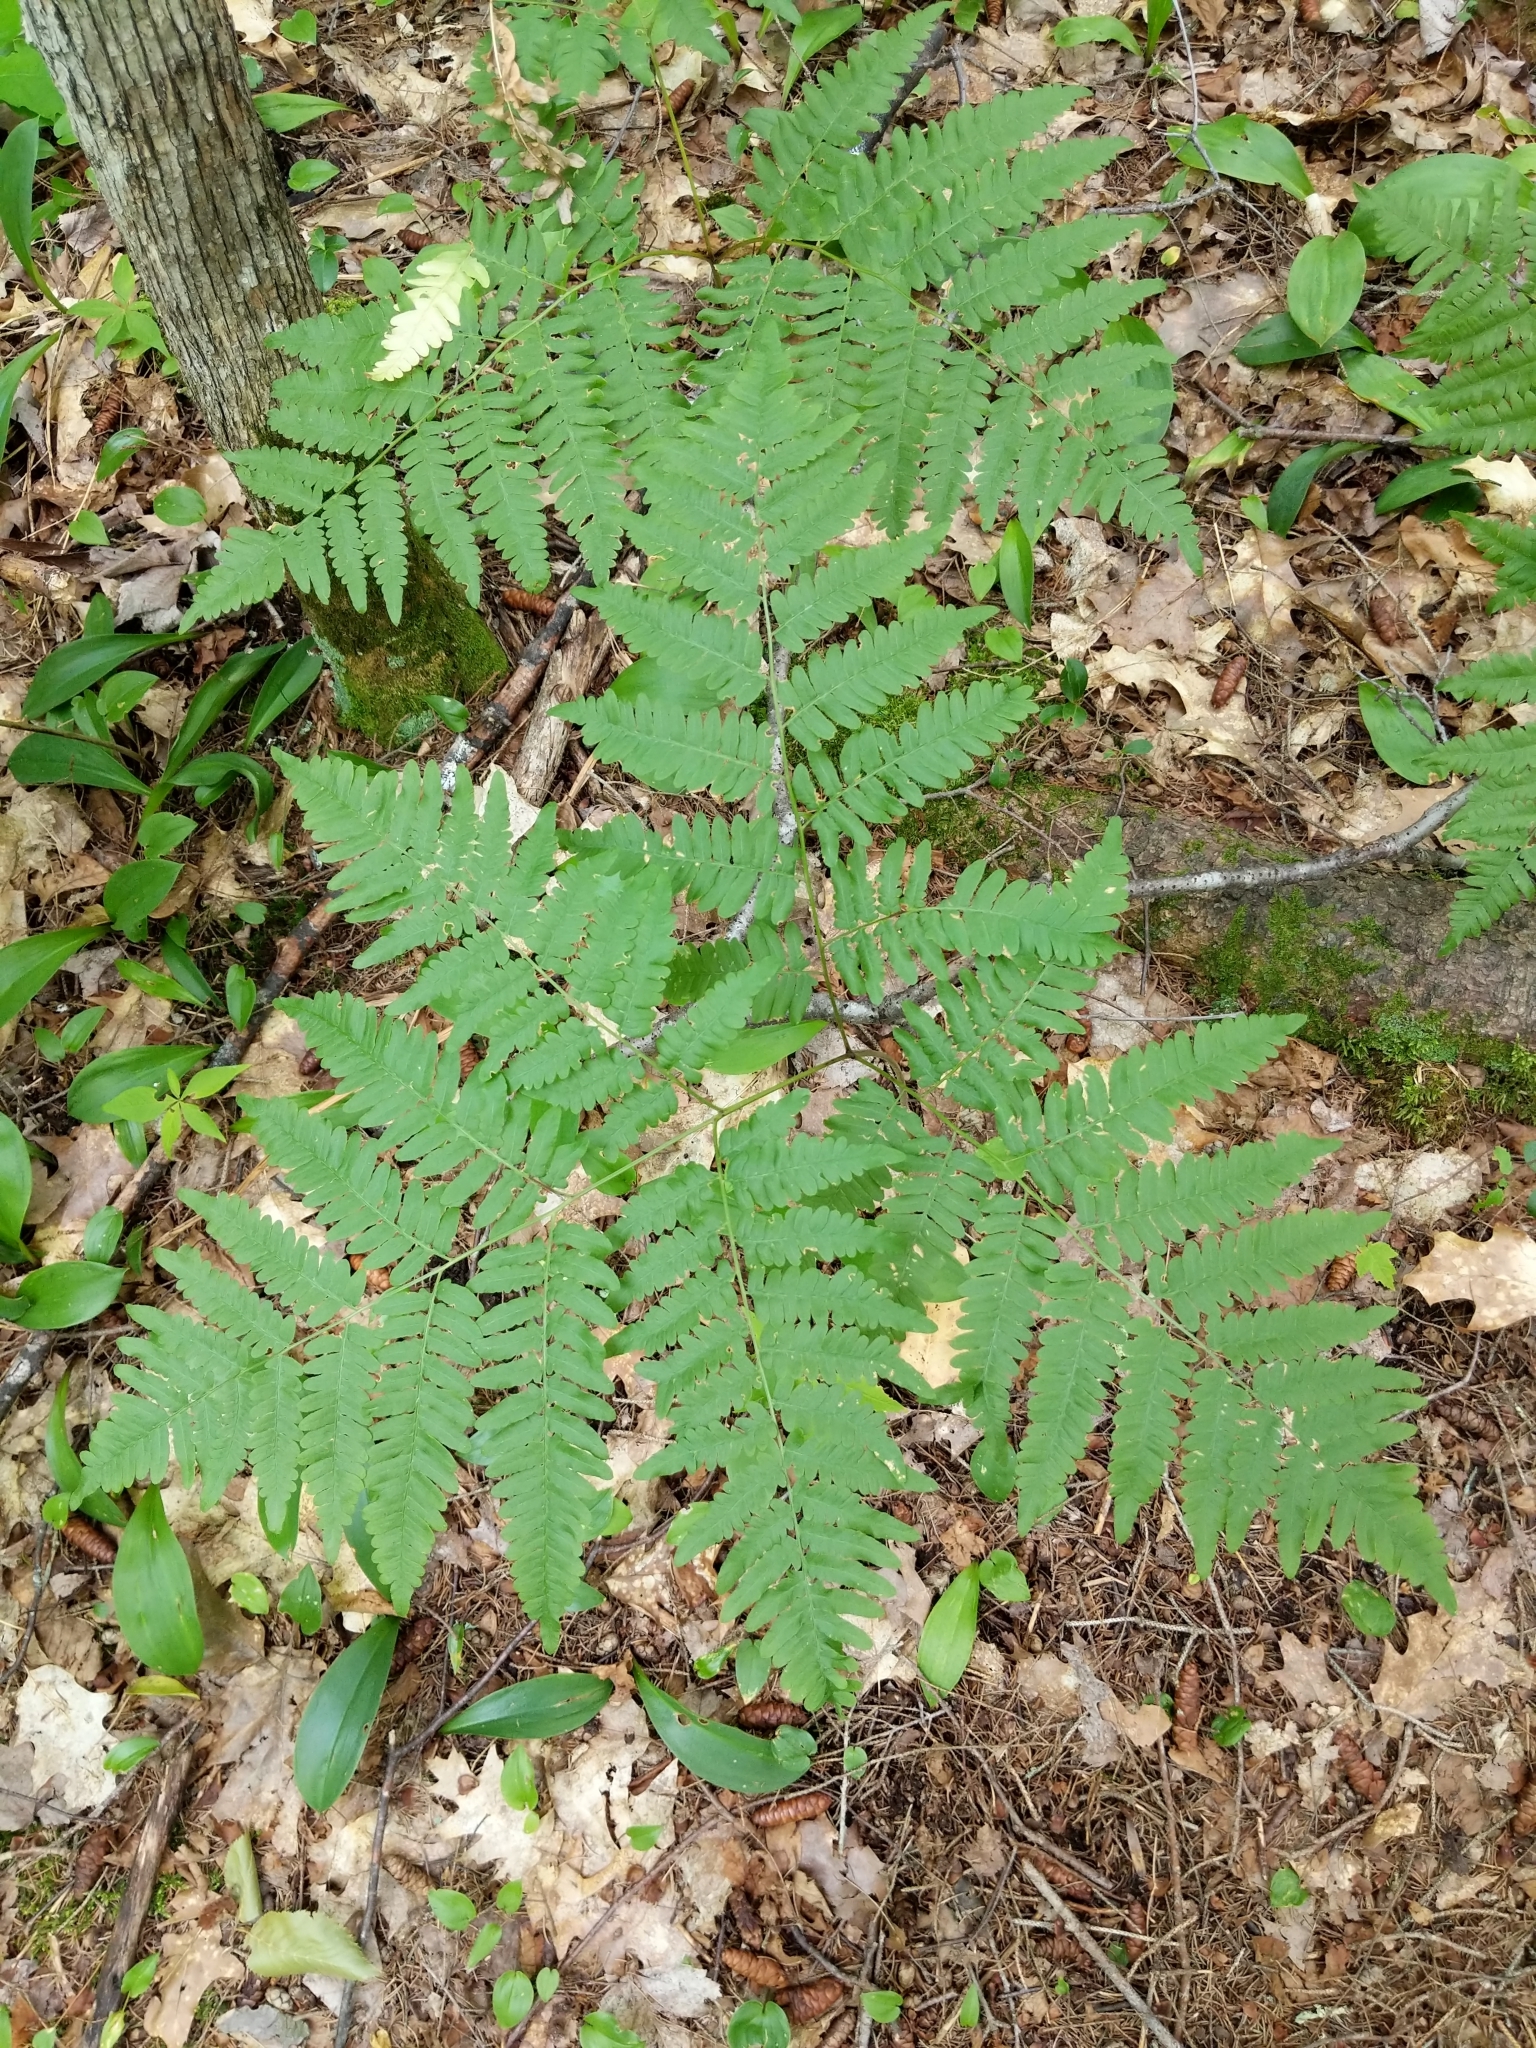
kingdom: Plantae
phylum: Tracheophyta
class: Polypodiopsida
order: Polypodiales
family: Dennstaedtiaceae
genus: Pteridium
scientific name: Pteridium aquilinum
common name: Bracken
